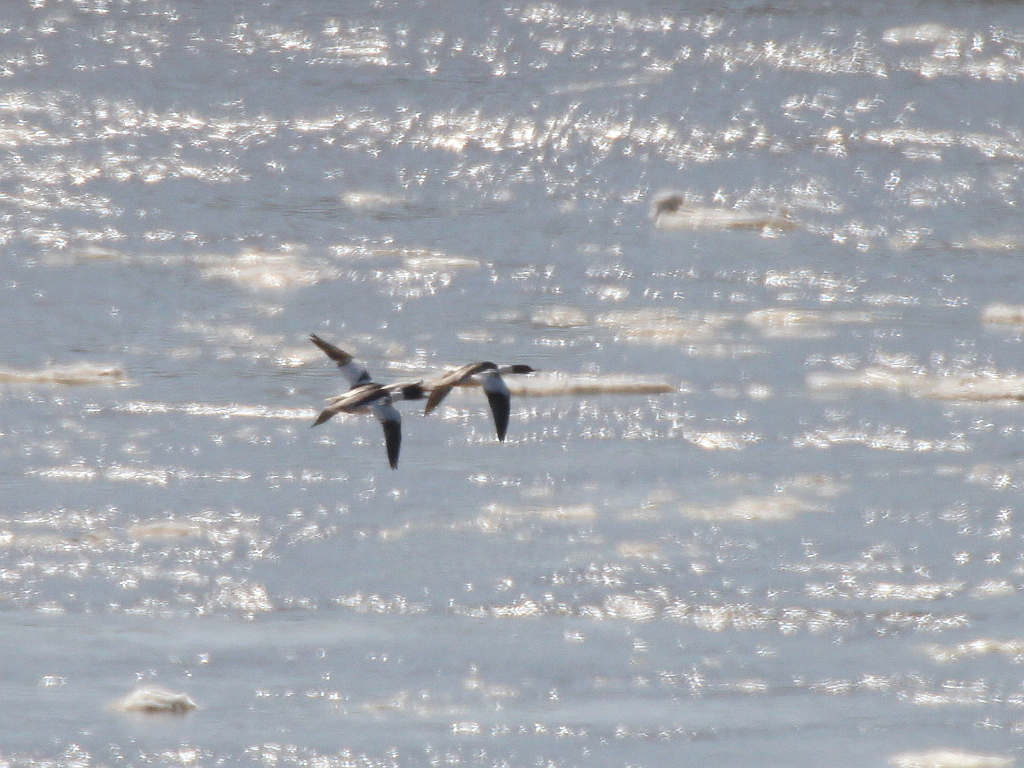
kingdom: Animalia
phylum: Chordata
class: Aves
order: Anseriformes
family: Anatidae
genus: Mergus
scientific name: Mergus merganser
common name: Common merganser
